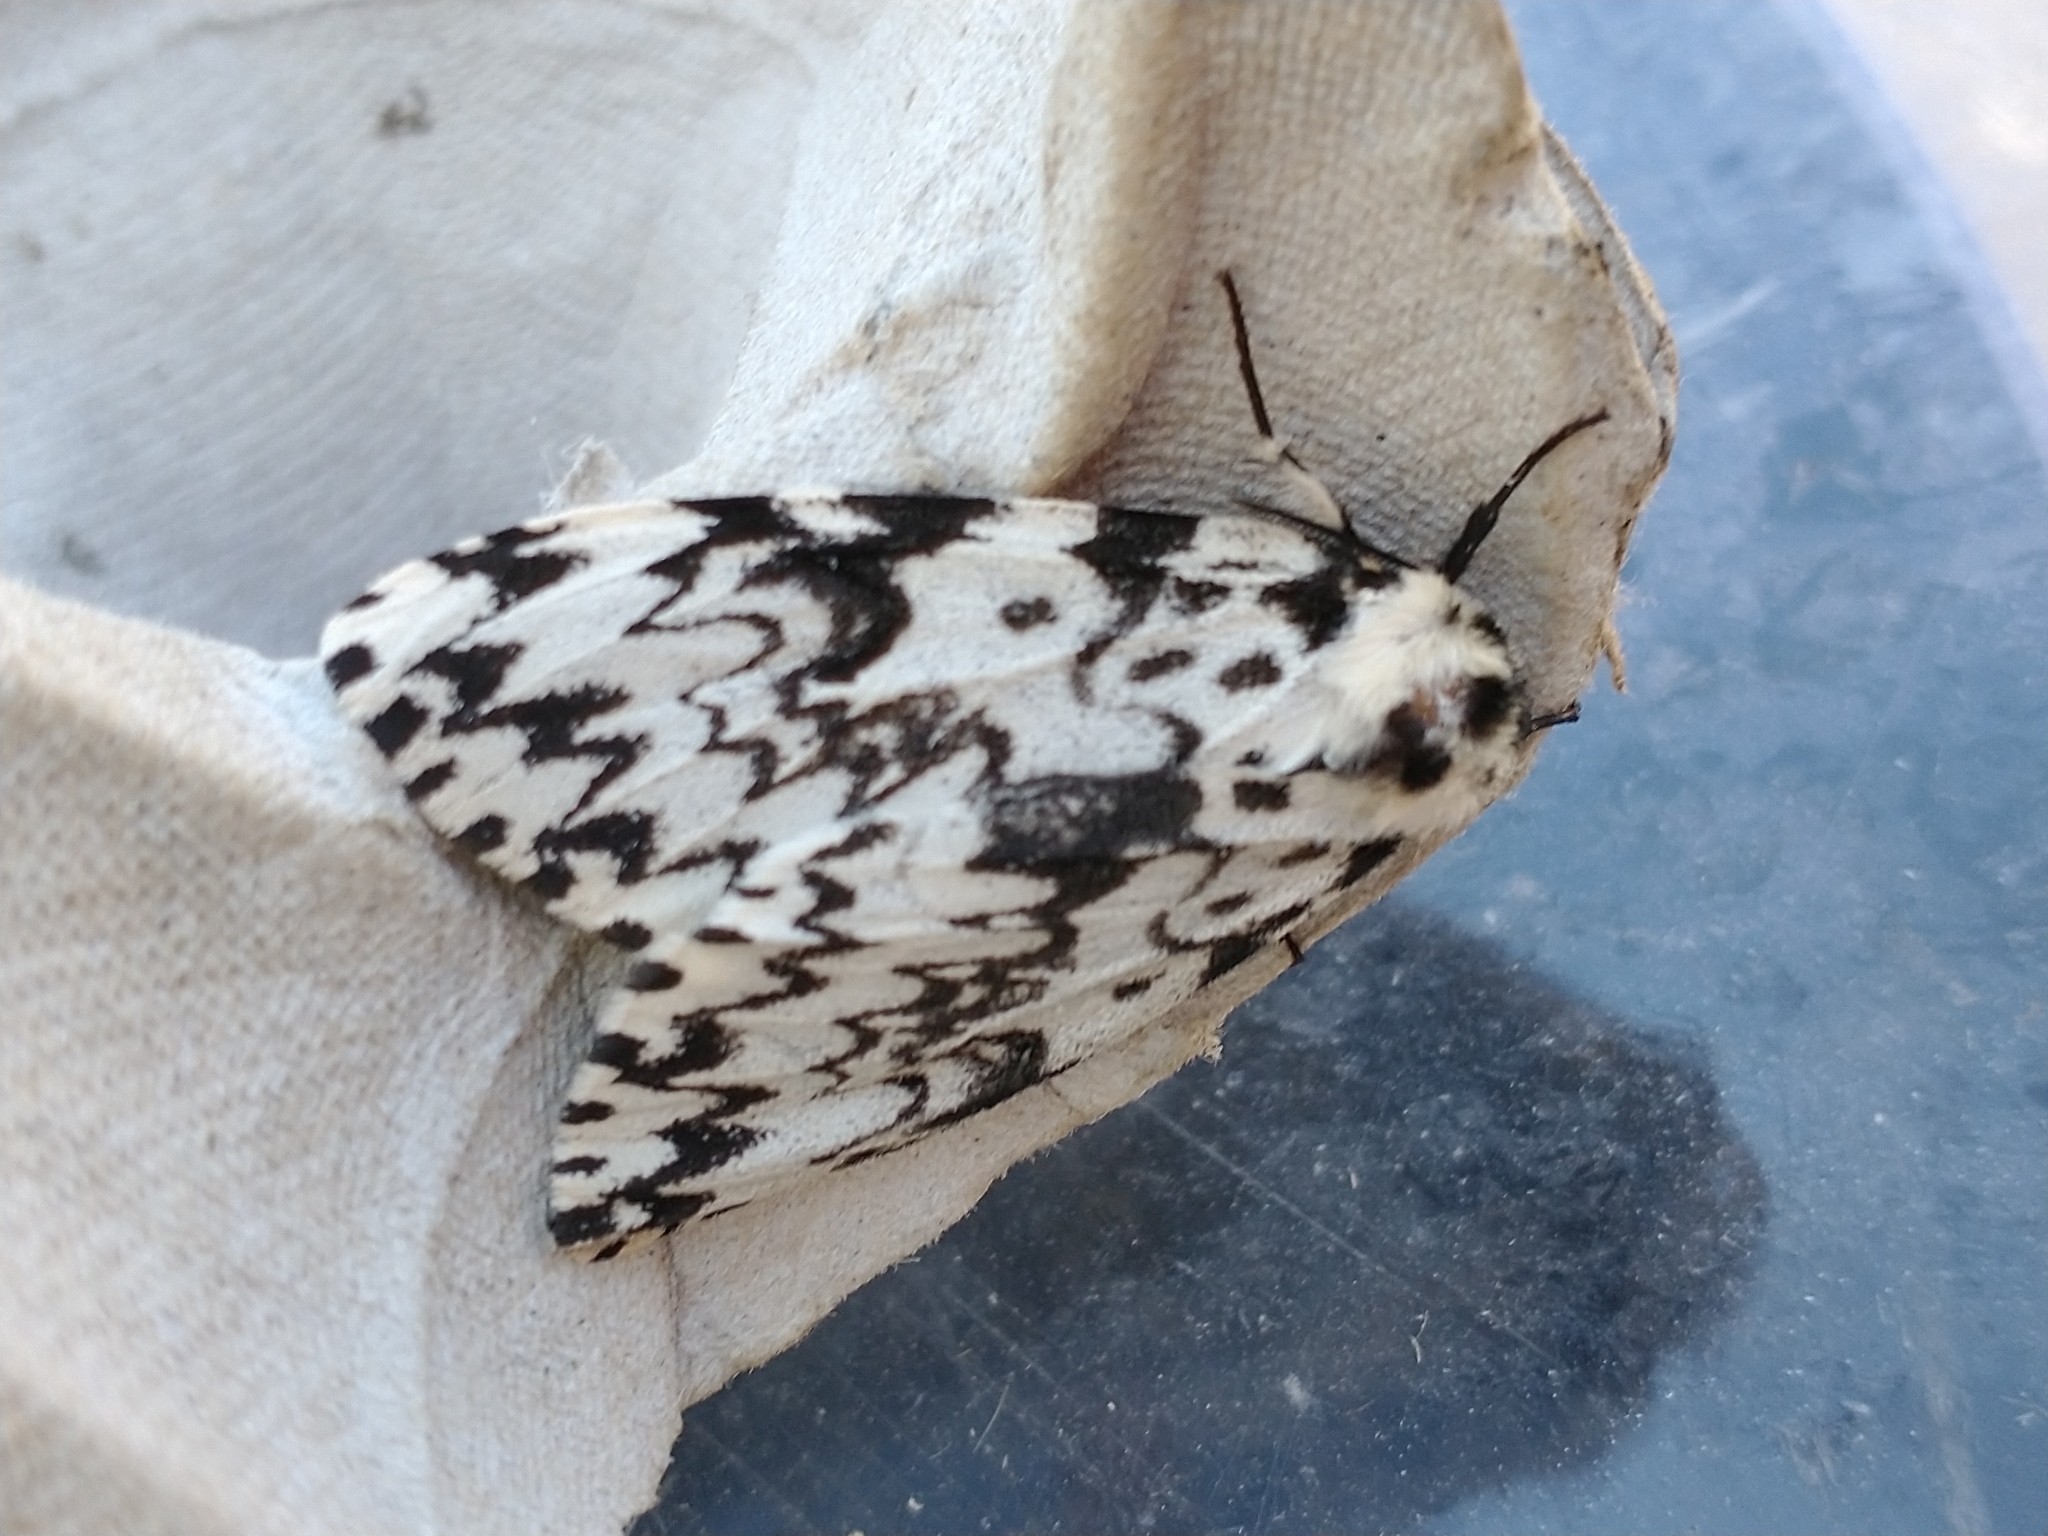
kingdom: Animalia
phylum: Arthropoda
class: Insecta
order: Lepidoptera
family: Erebidae
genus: Lymantria
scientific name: Lymantria monacha
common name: Black arches
